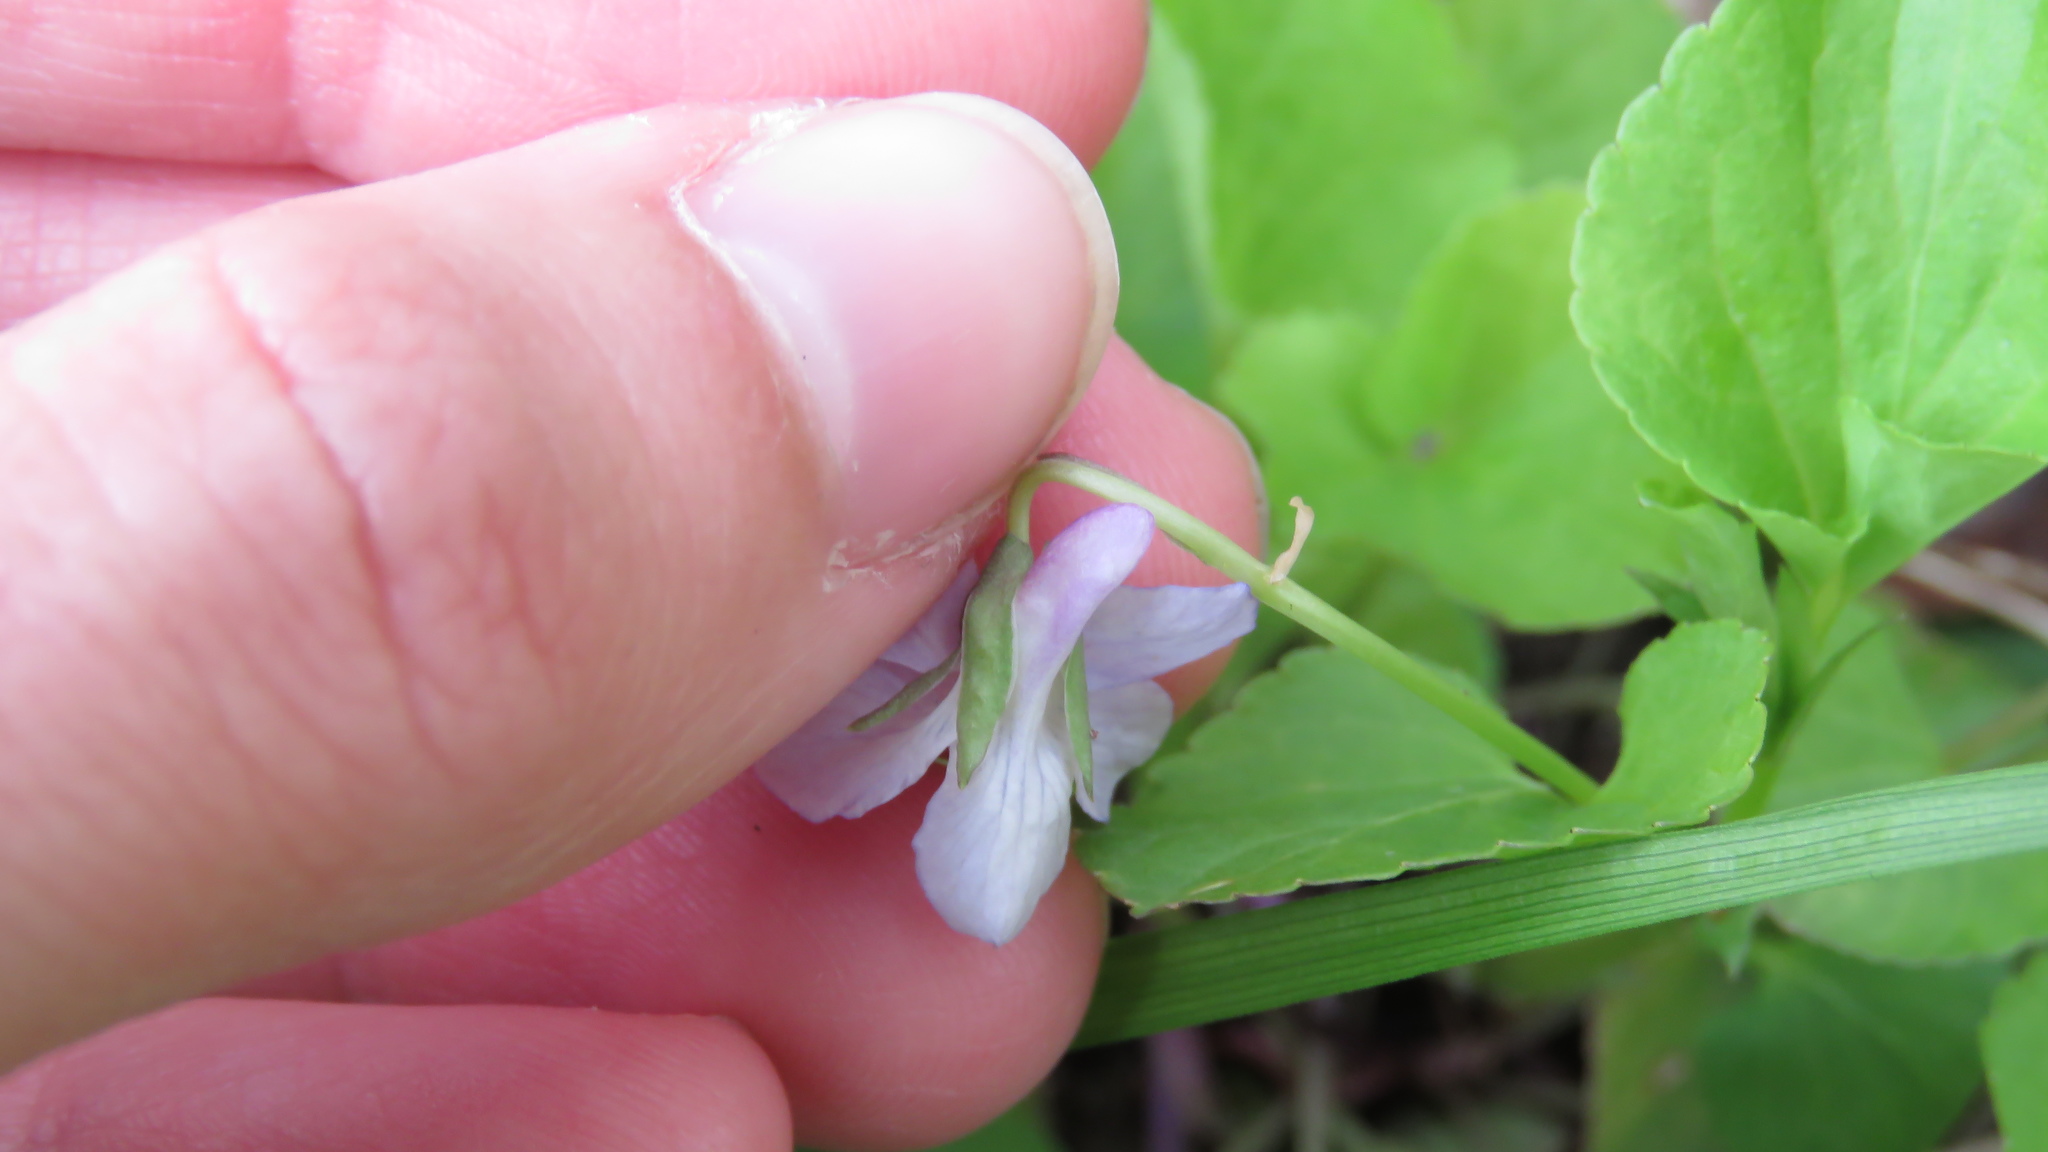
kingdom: Plantae
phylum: Tracheophyta
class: Magnoliopsida
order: Malpighiales
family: Violaceae
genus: Viola
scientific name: Viola labradorica
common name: Labrador violet
